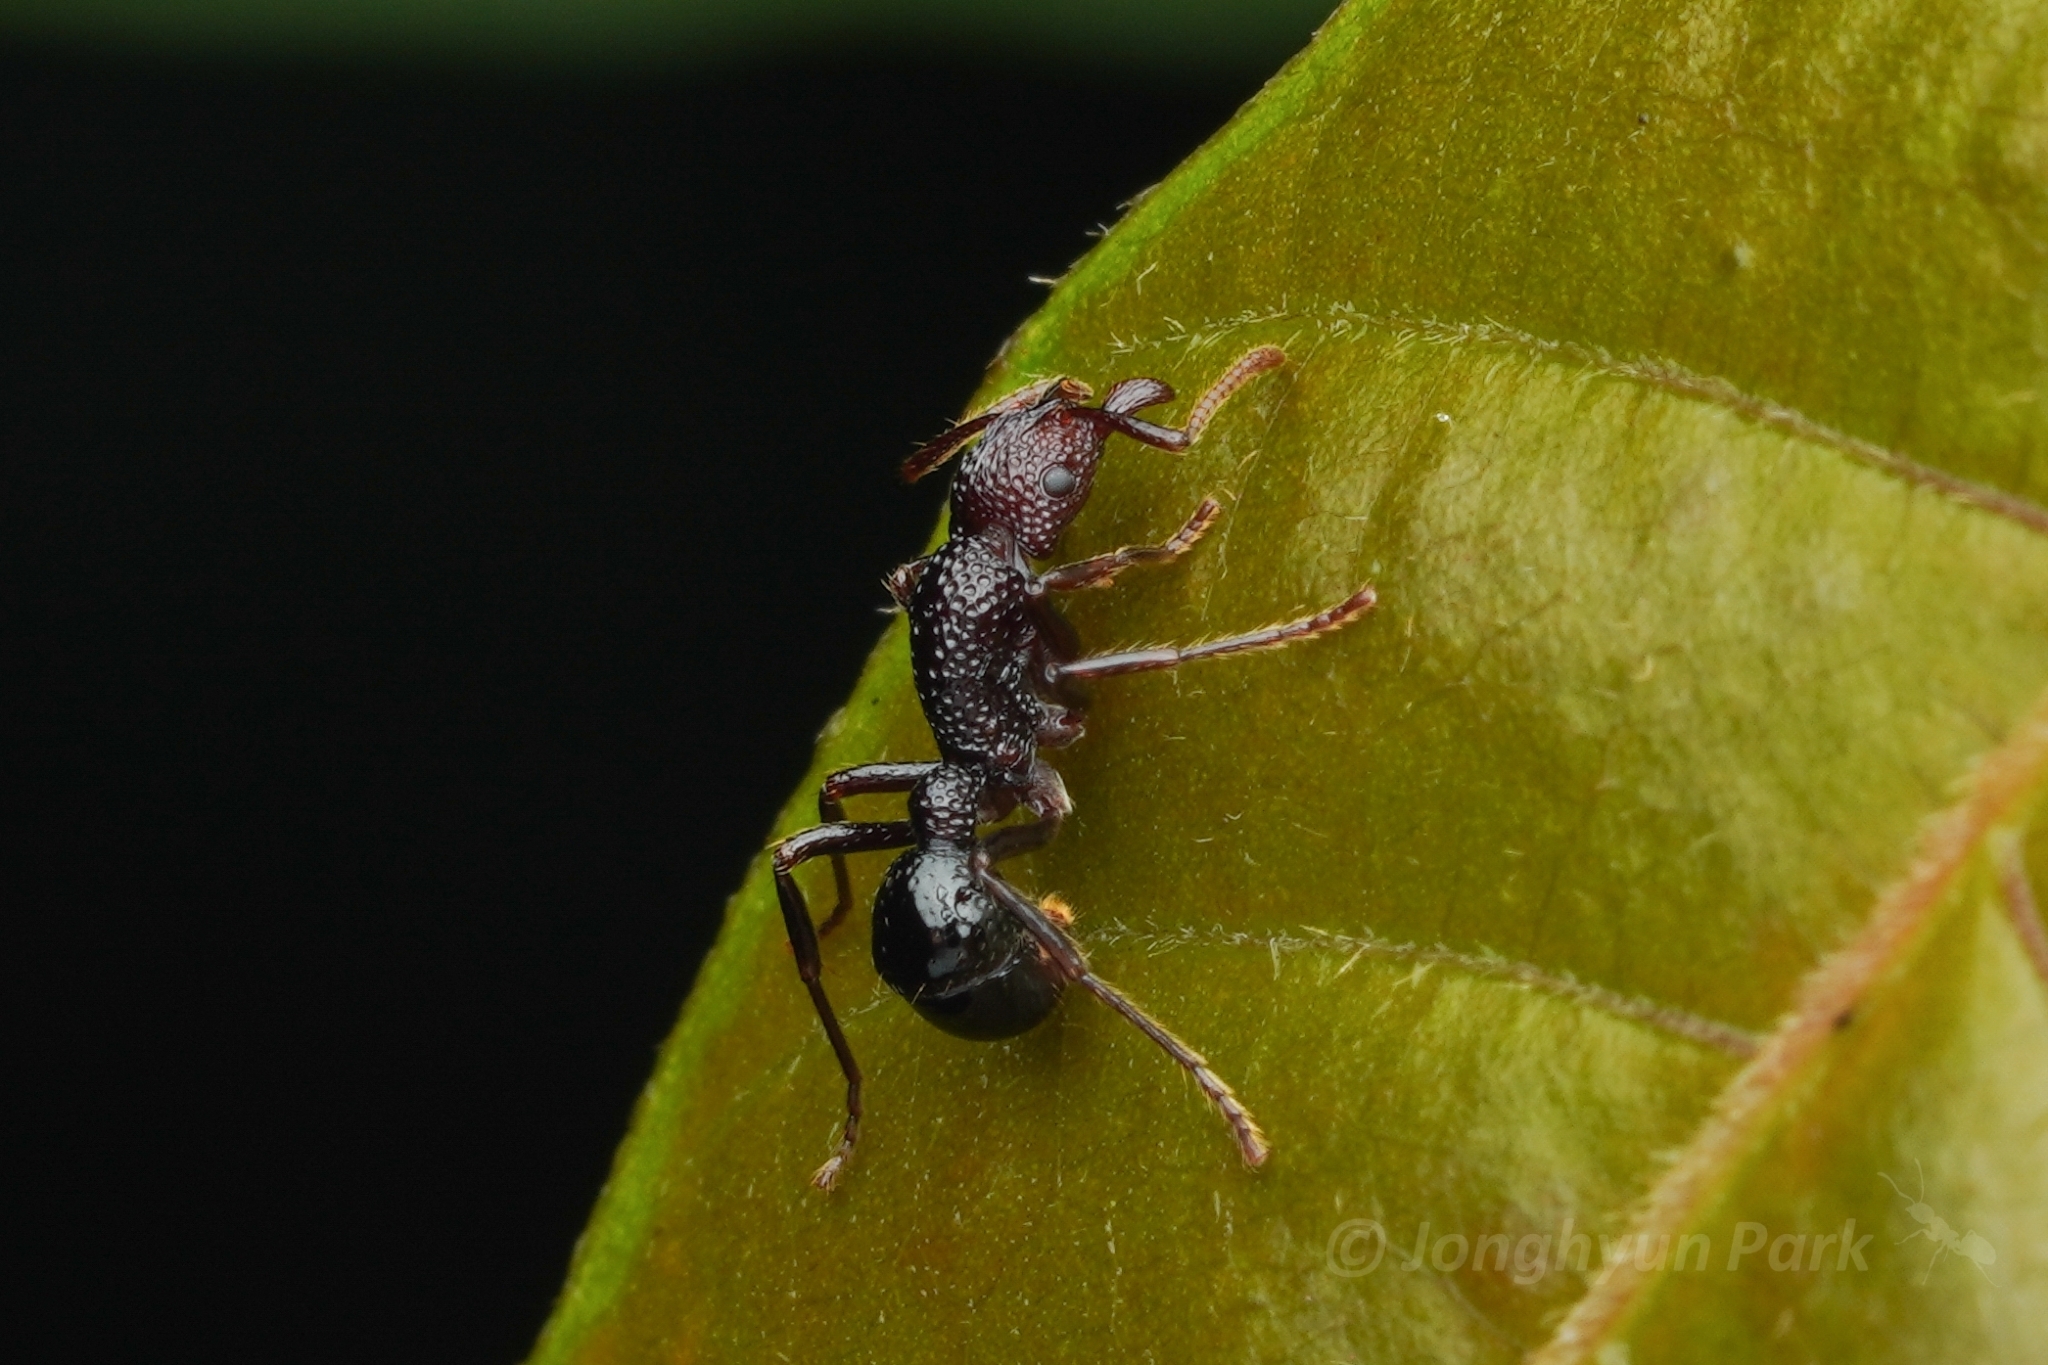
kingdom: Animalia
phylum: Arthropoda
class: Insecta
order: Hymenoptera
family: Formicidae
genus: Stictoponera
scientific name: Stictoponera
